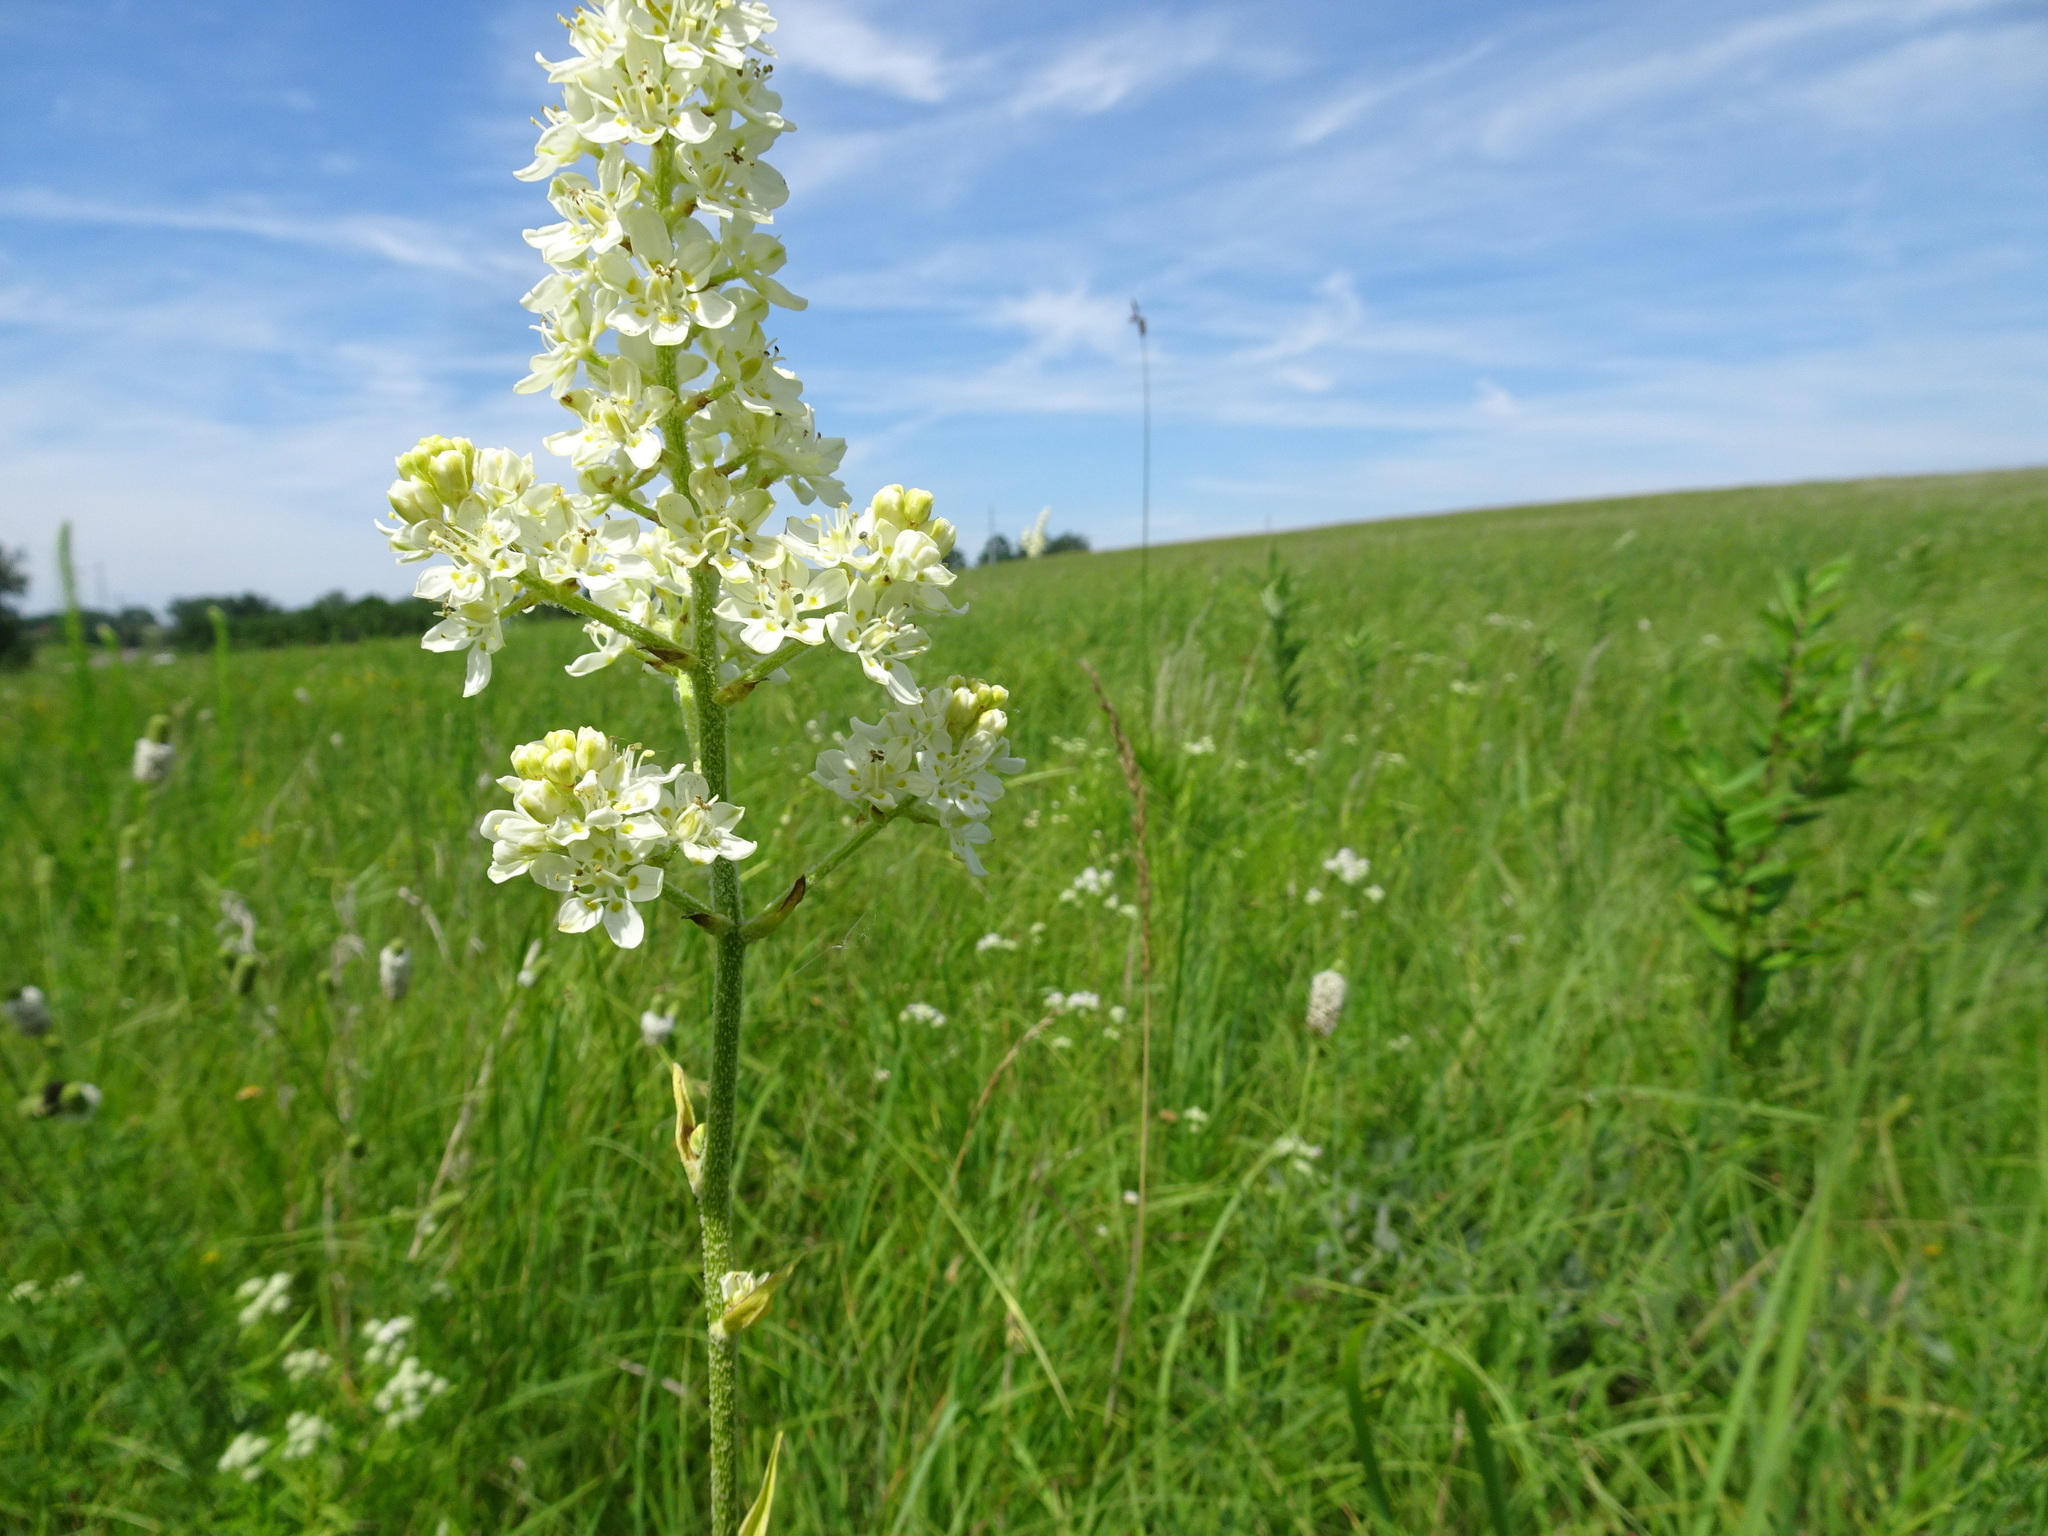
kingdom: Plantae
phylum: Tracheophyta
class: Liliopsida
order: Liliales
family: Melanthiaceae
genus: Melanthium
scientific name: Melanthium virginicum
